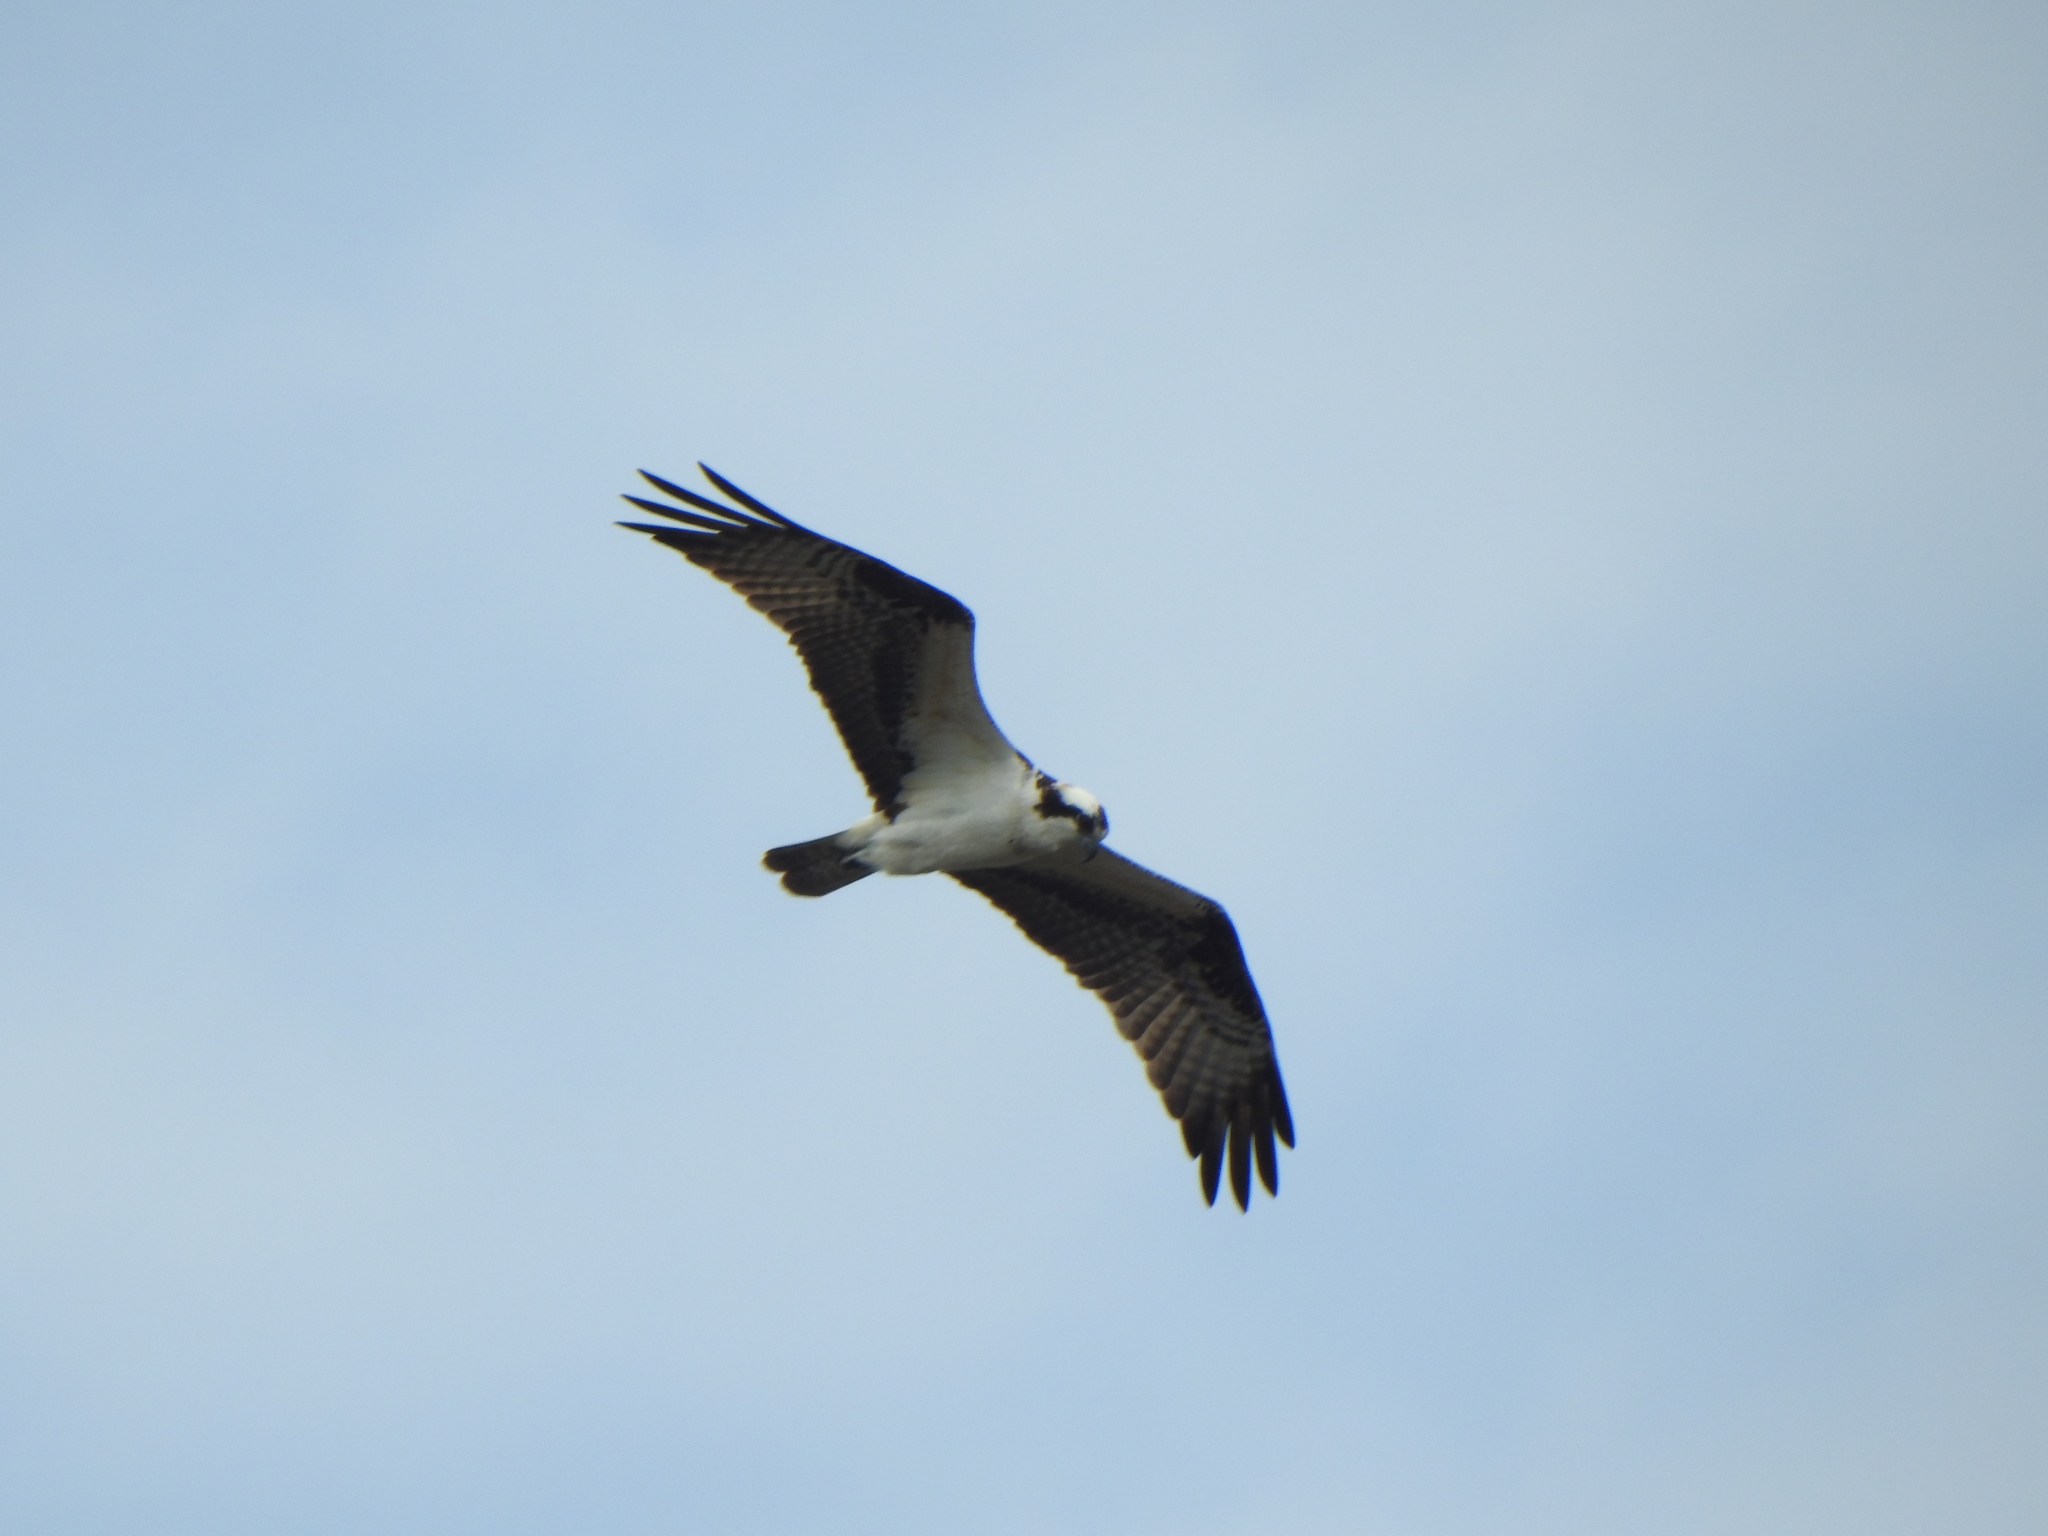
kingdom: Animalia
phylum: Chordata
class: Aves
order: Accipitriformes
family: Pandionidae
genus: Pandion
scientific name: Pandion haliaetus
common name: Osprey
